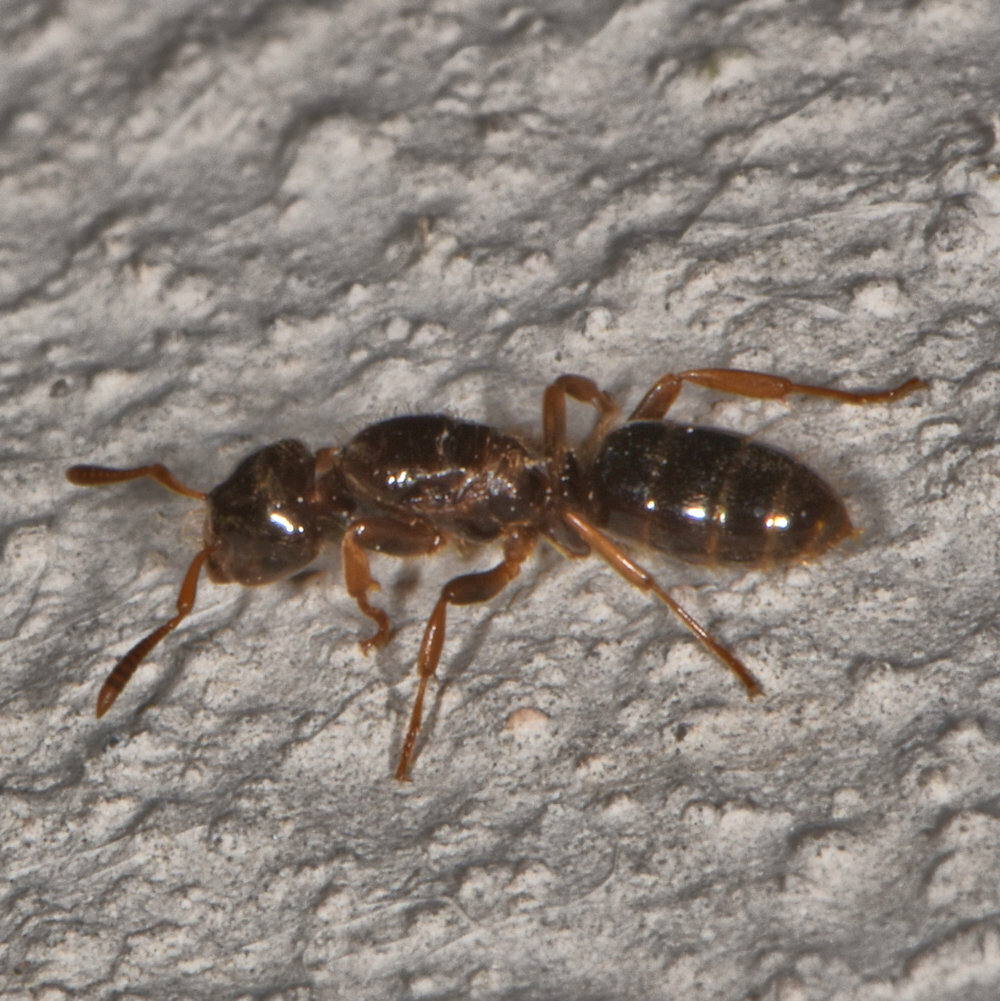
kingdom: Animalia
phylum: Arthropoda
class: Insecta
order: Hymenoptera
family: Formicidae
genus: Lasius
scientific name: Lasius claviger
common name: Common citronella ant
